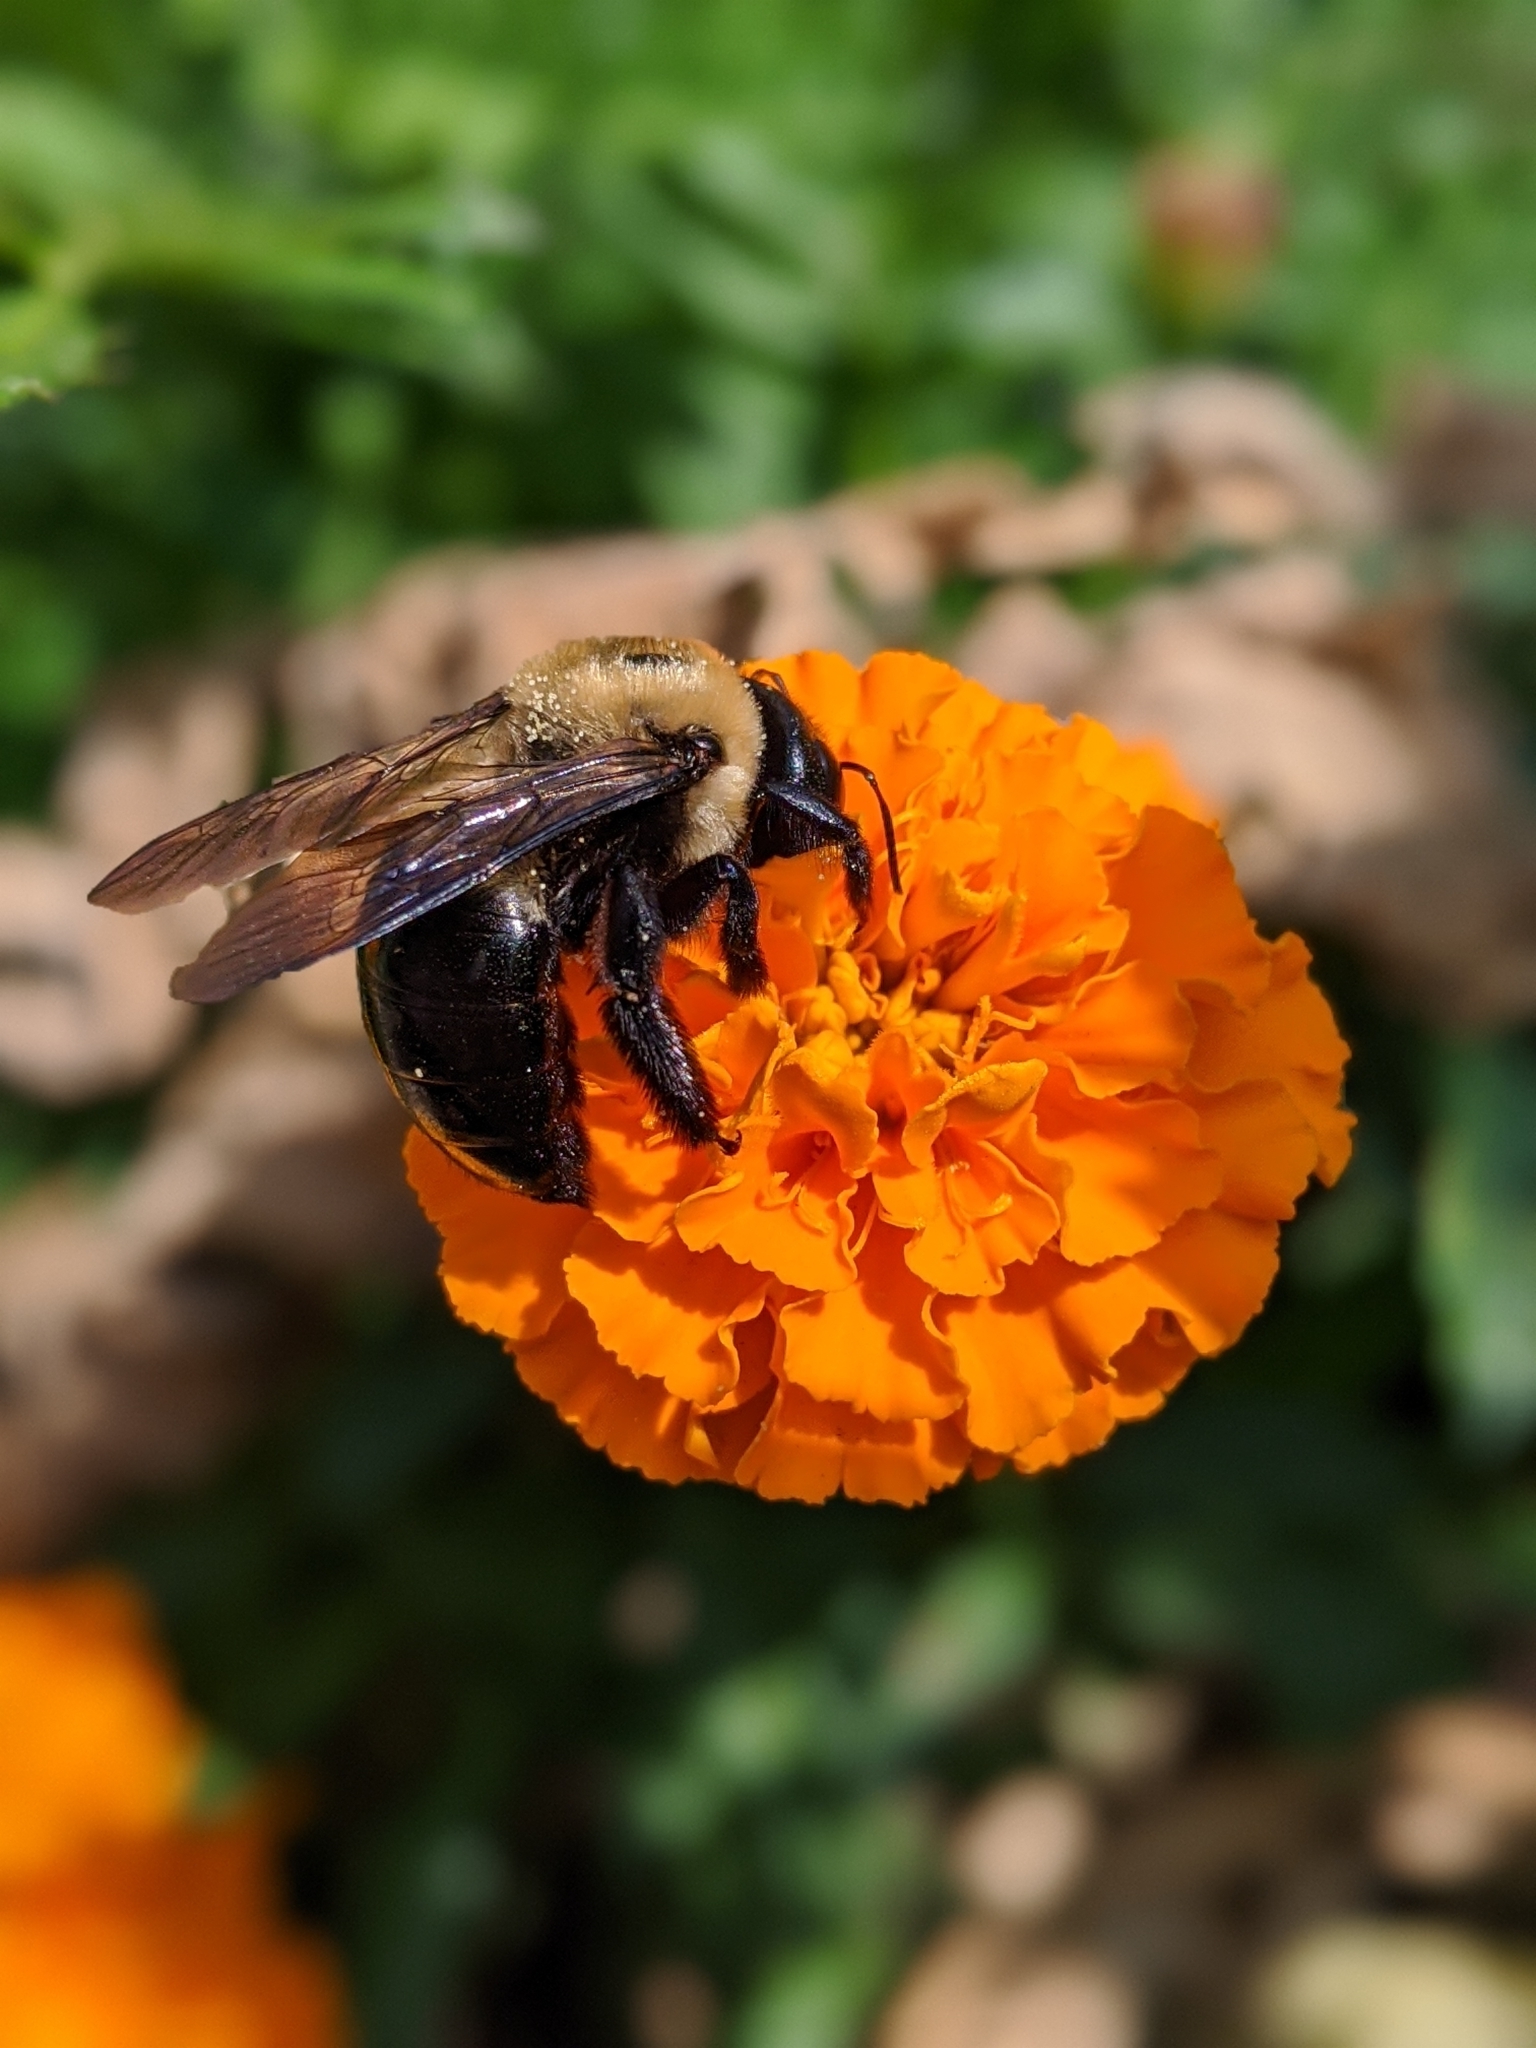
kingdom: Animalia
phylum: Arthropoda
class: Insecta
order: Hymenoptera
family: Apidae
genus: Xylocopa
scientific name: Xylocopa virginica
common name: Carpenter bee
